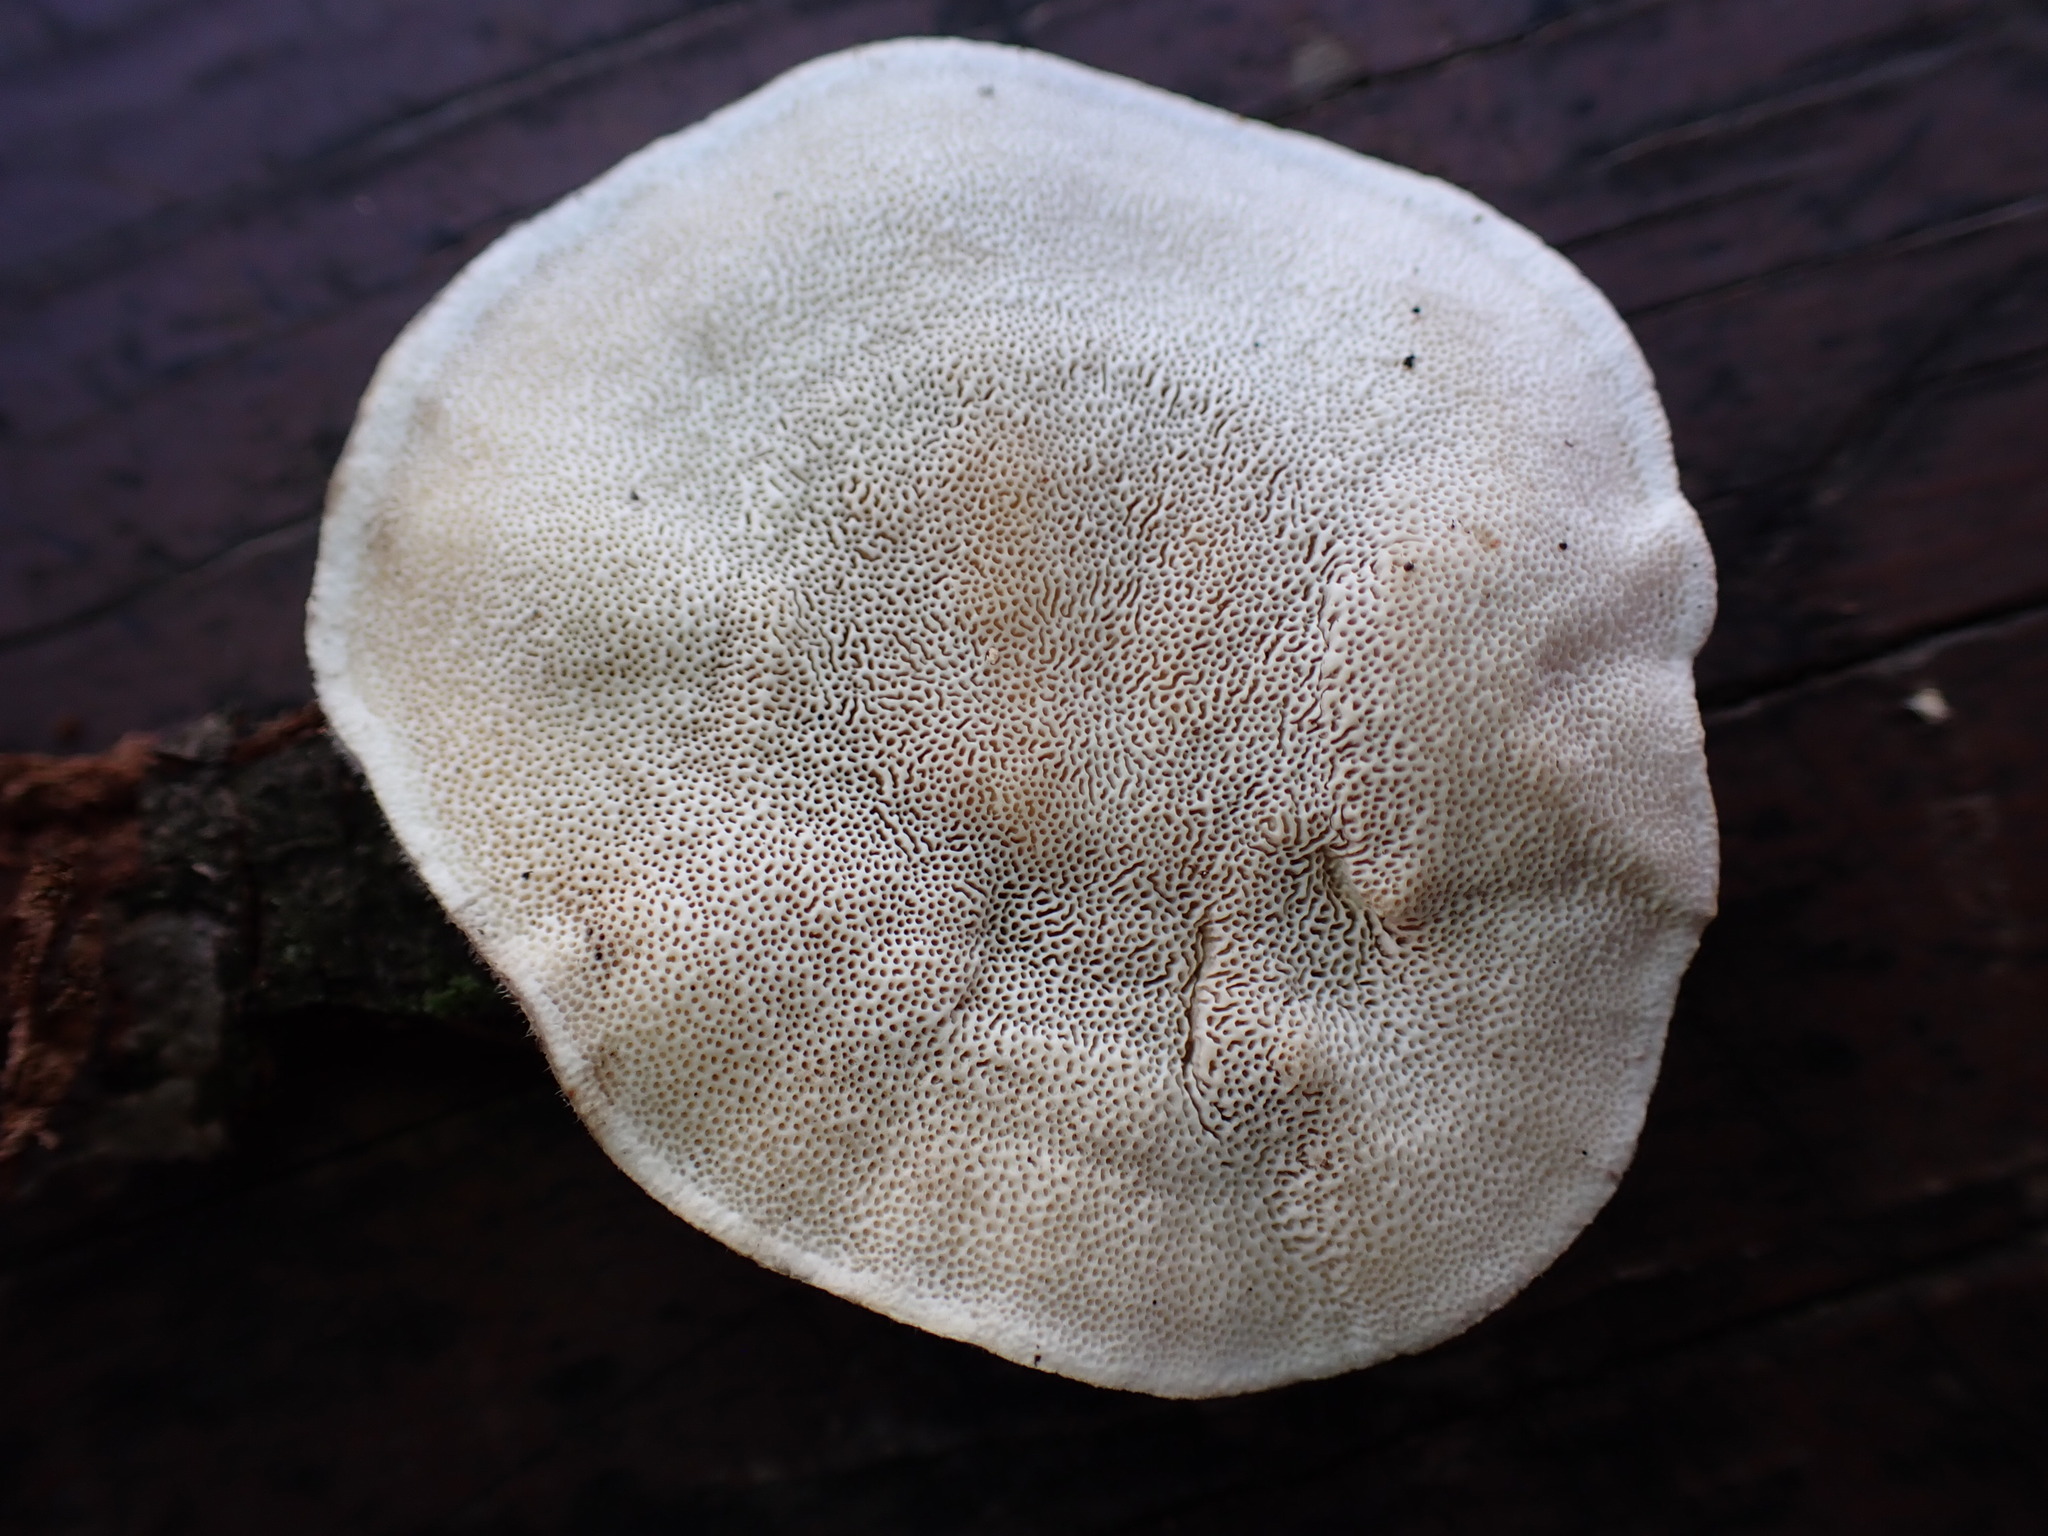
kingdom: Fungi
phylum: Basidiomycota
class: Agaricomycetes
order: Polyporales
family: Polyporaceae
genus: Trametes
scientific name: Trametes hirsuta
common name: Hairy bracket
